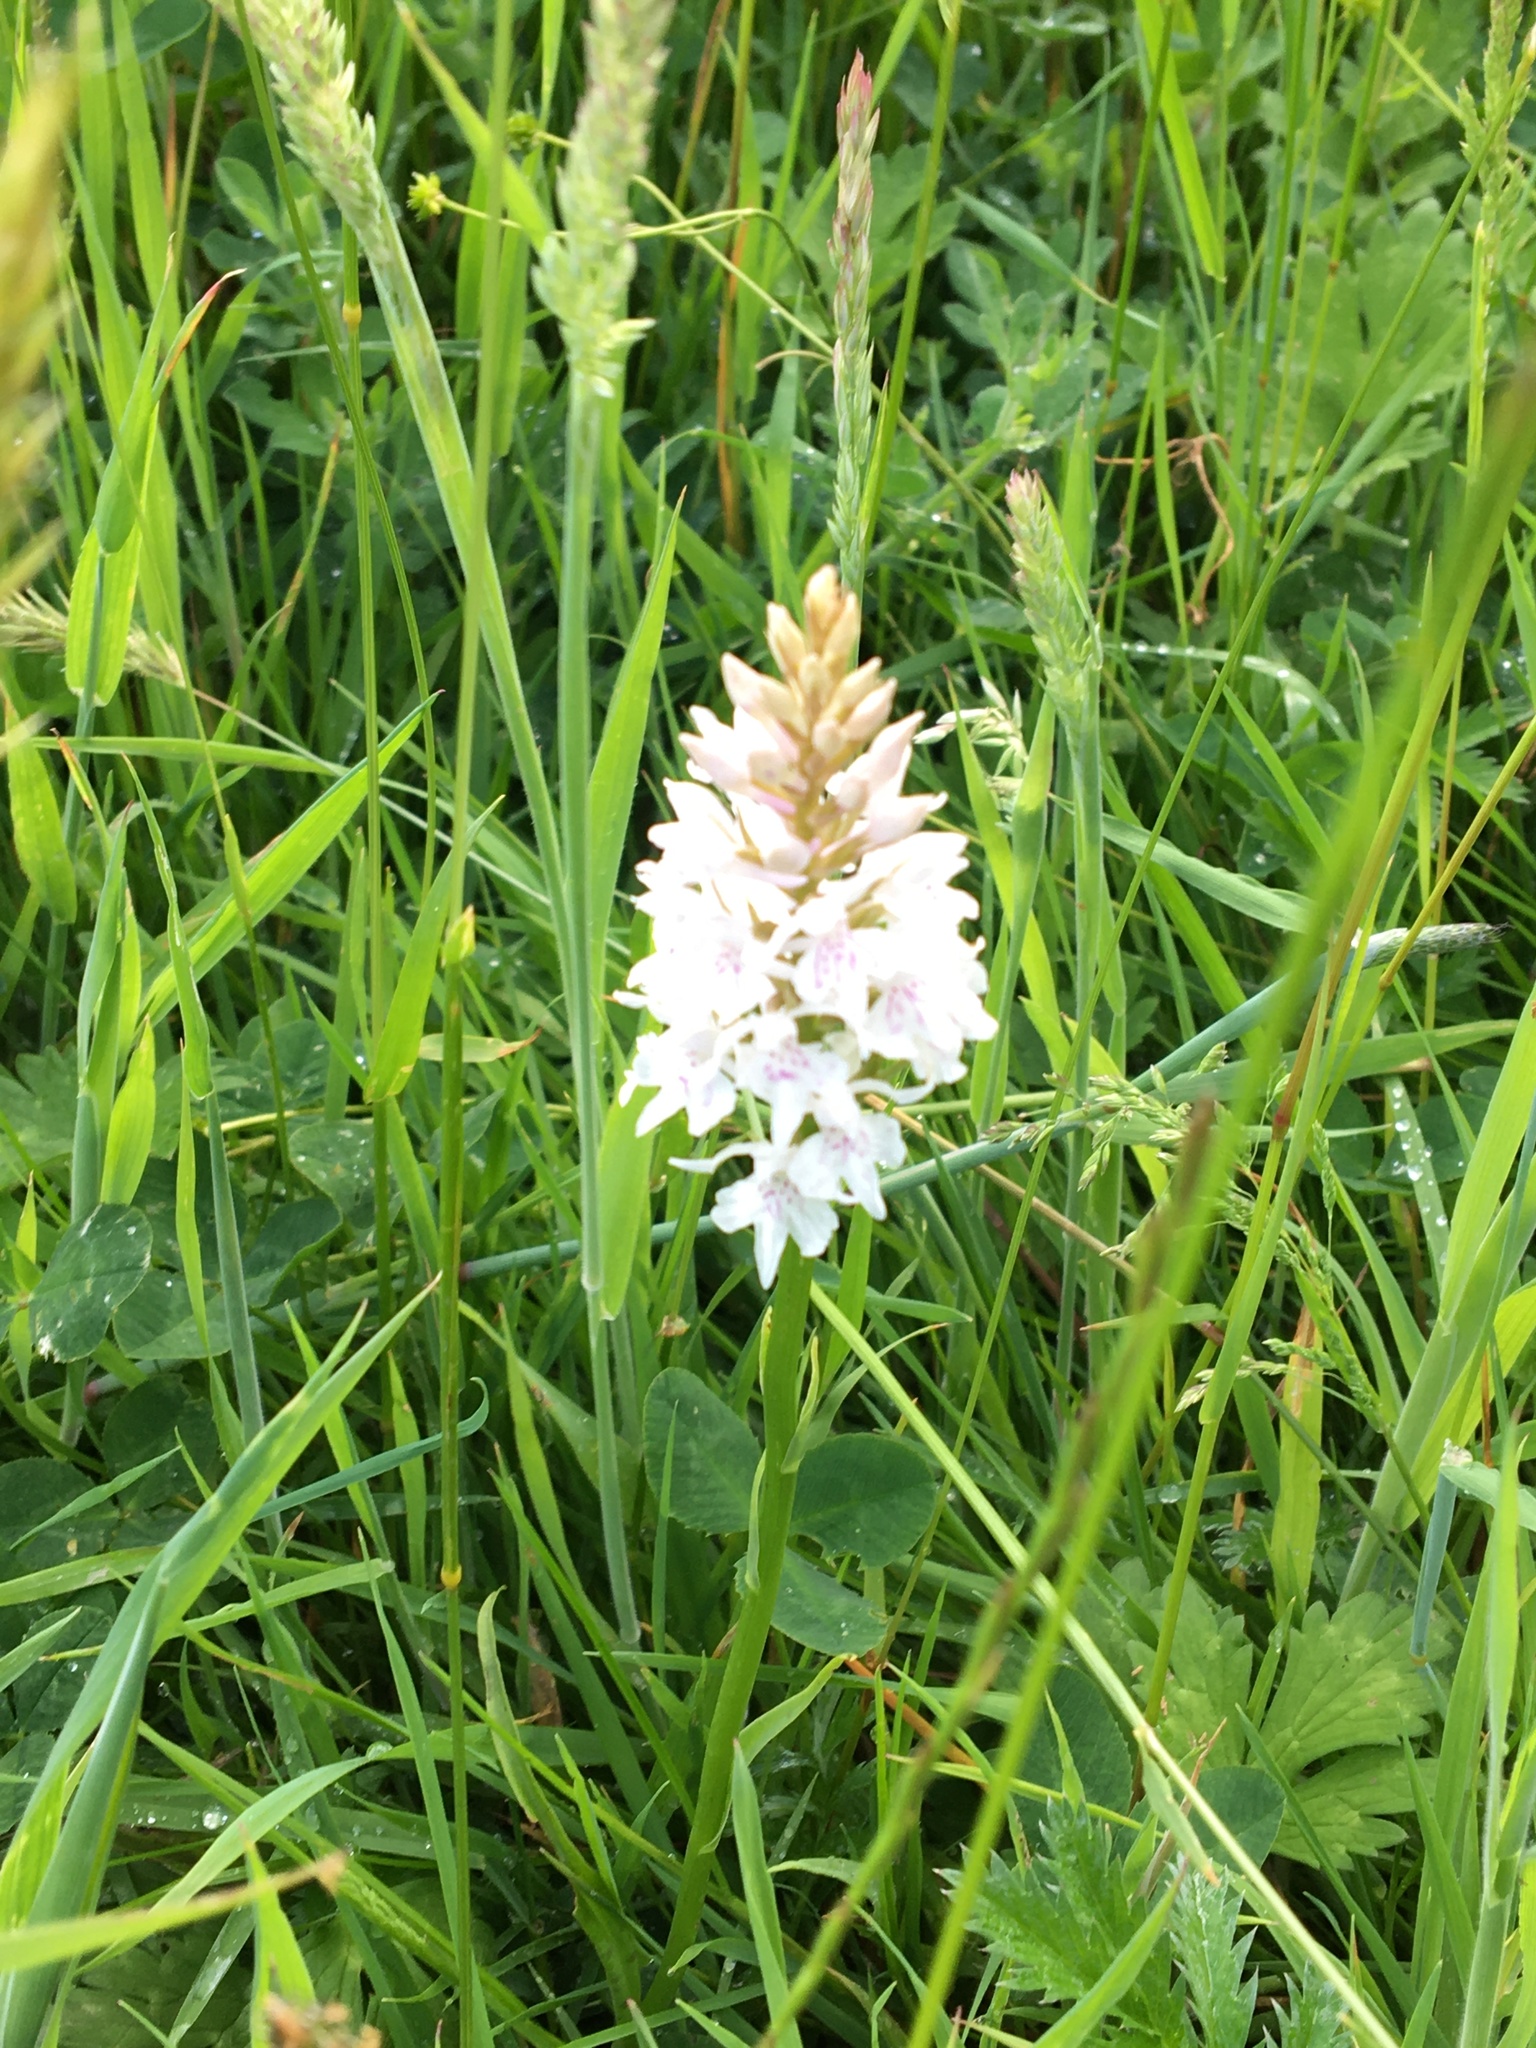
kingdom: Plantae
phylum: Tracheophyta
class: Liliopsida
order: Asparagales
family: Orchidaceae
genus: Dactylorhiza
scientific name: Dactylorhiza maculata
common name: Heath spotted-orchid
